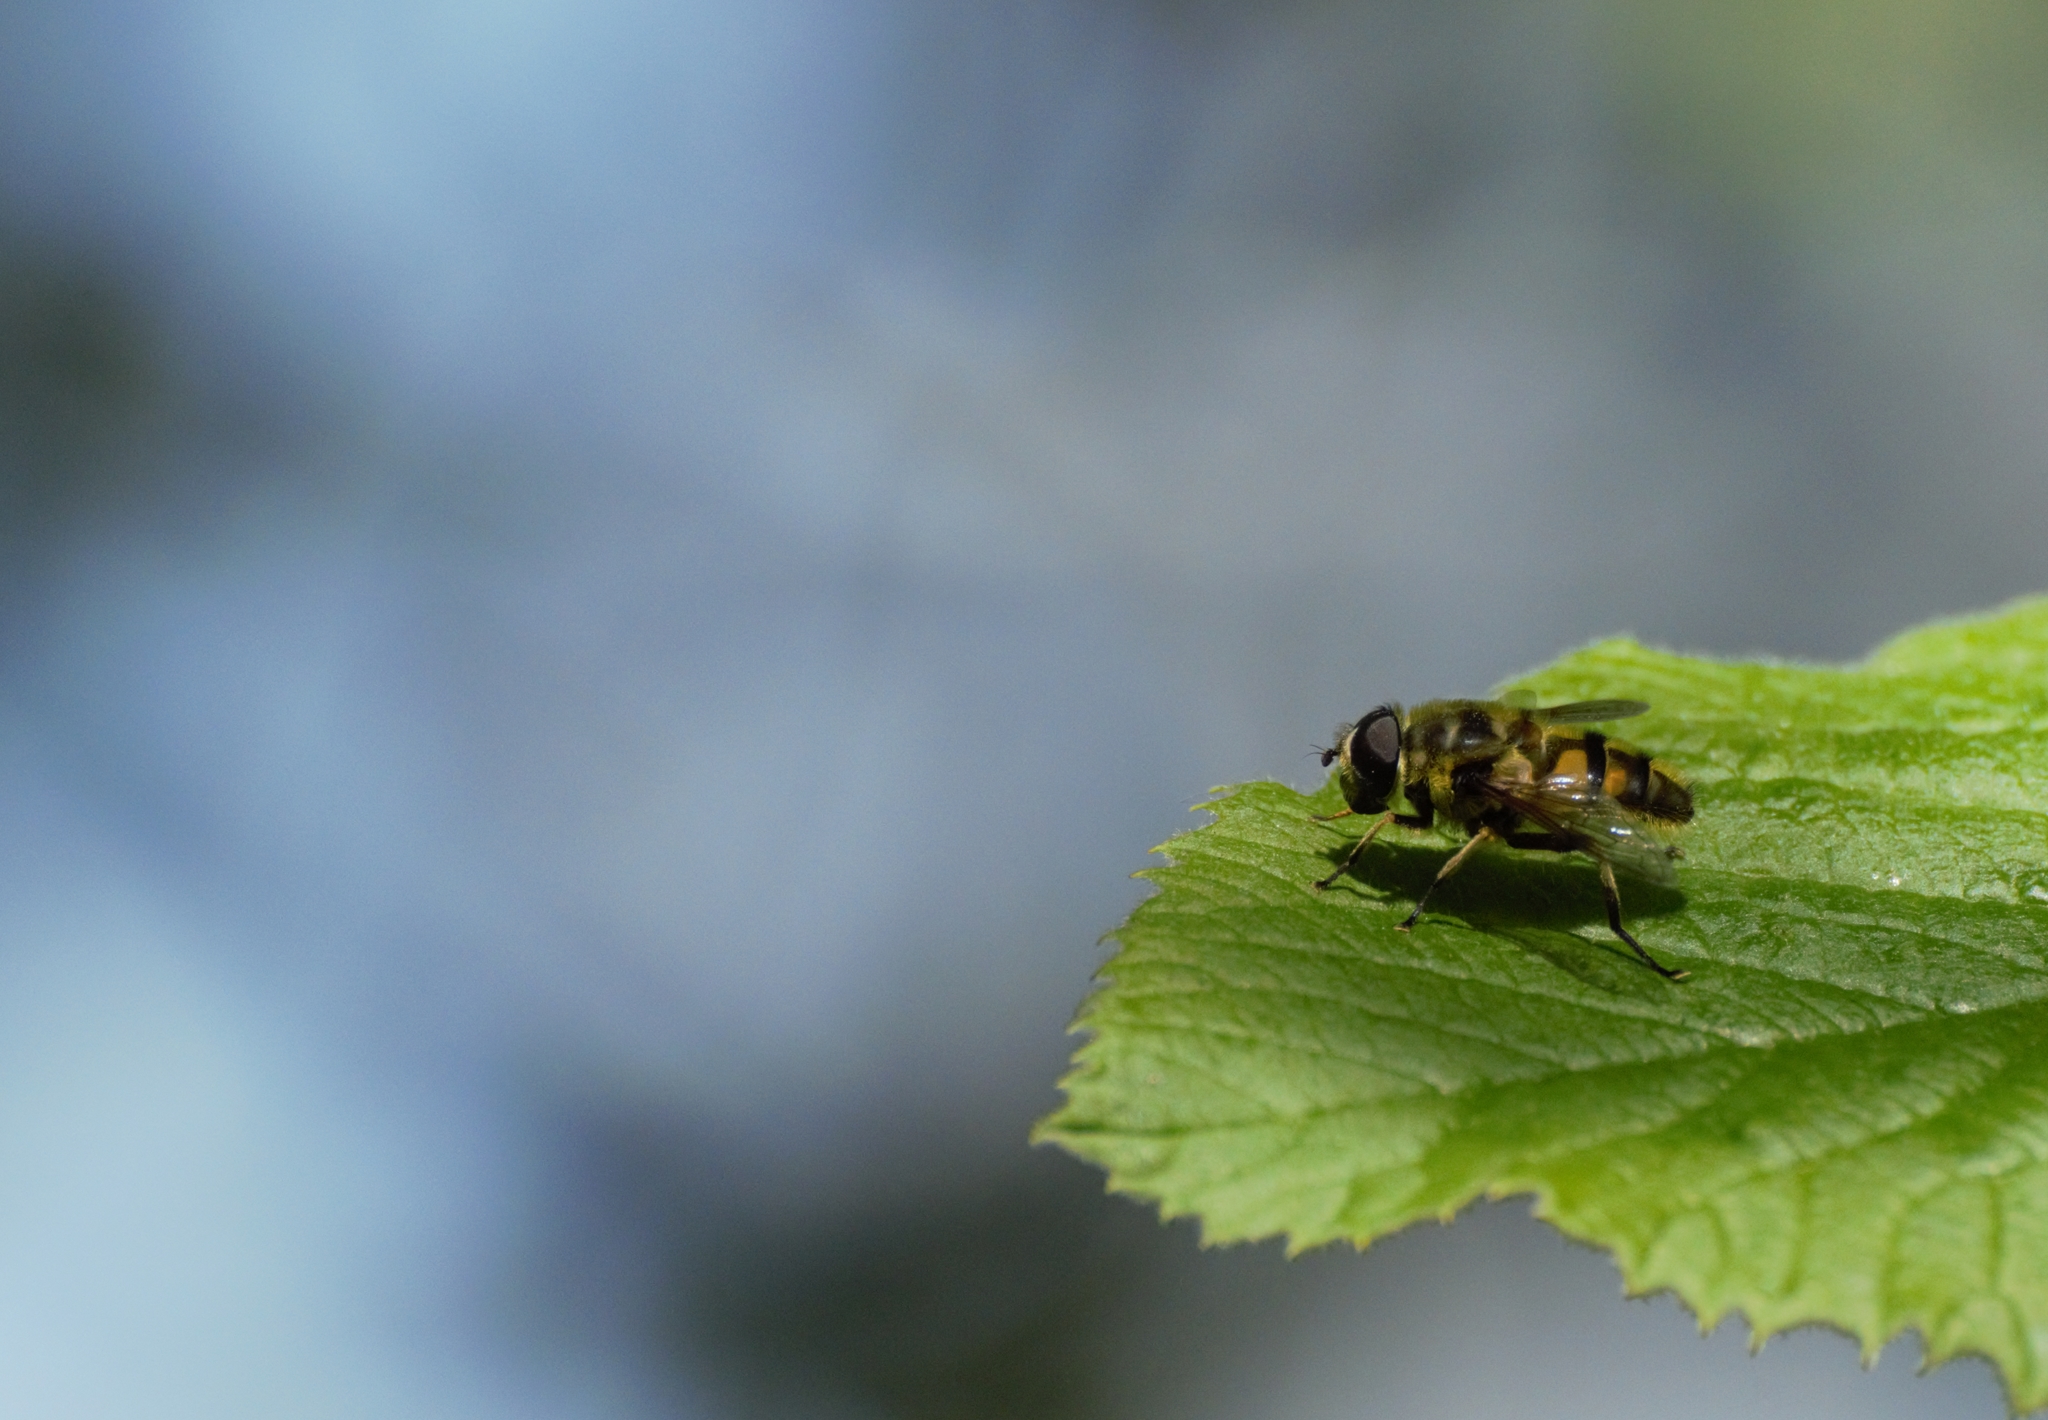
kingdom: Animalia
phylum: Arthropoda
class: Insecta
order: Diptera
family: Syrphidae
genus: Myathropa
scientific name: Myathropa florea
